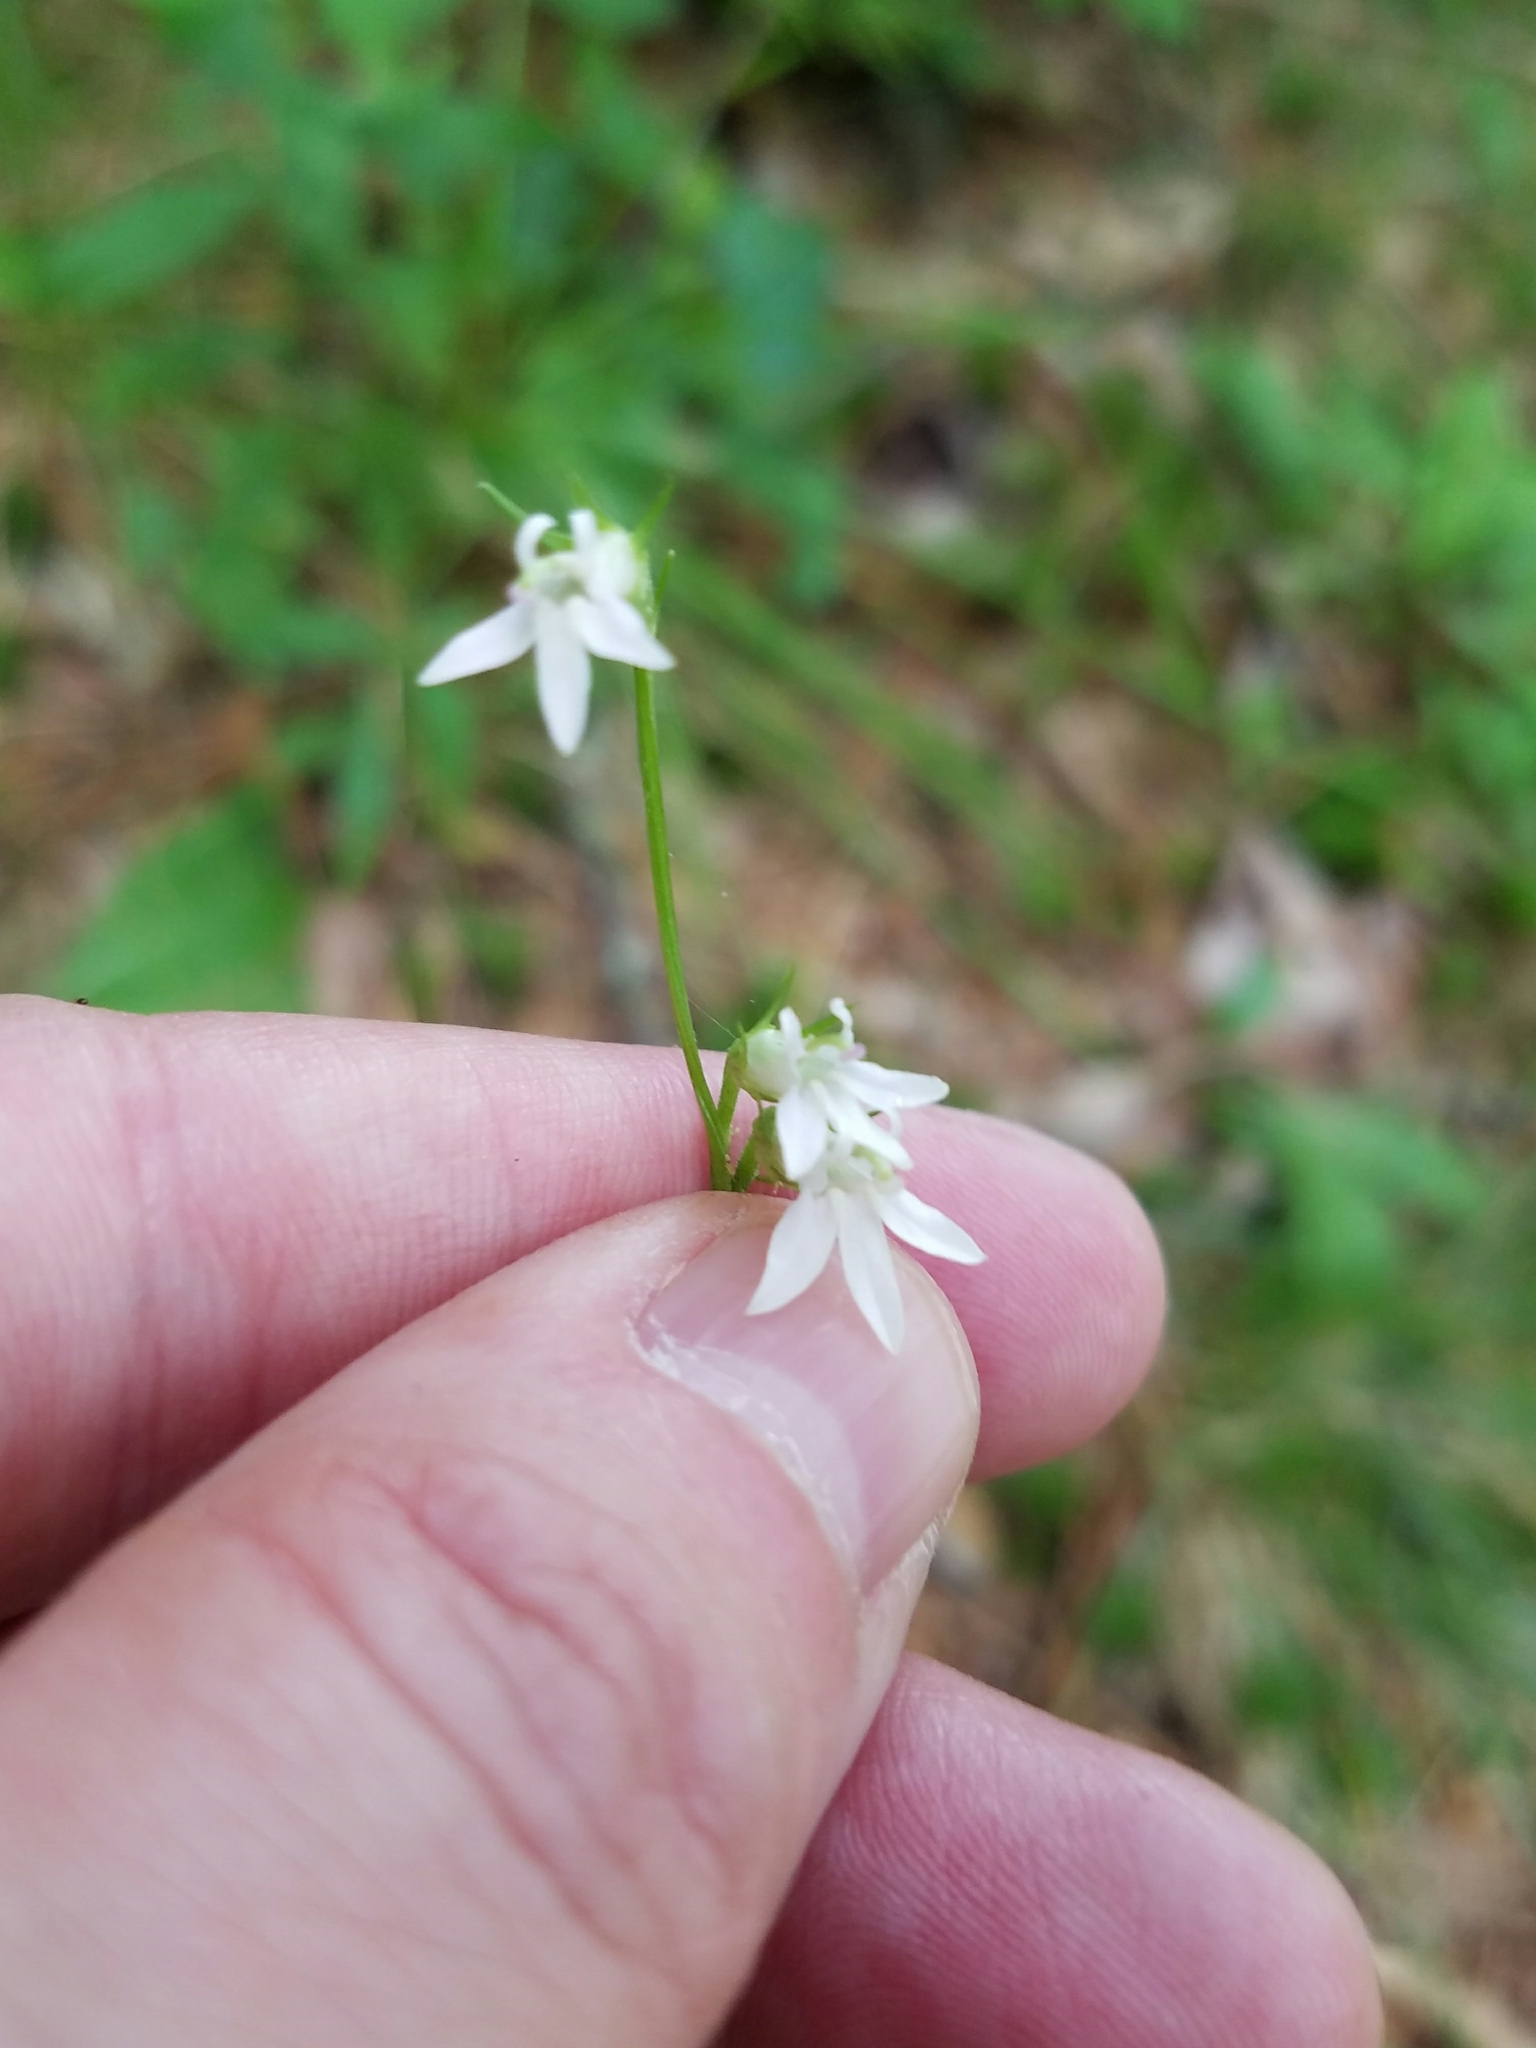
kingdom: Plantae
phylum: Tracheophyta
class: Magnoliopsida
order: Asterales
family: Campanulaceae
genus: Lobelia
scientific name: Lobelia spicata
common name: Pale-spike lobelia
